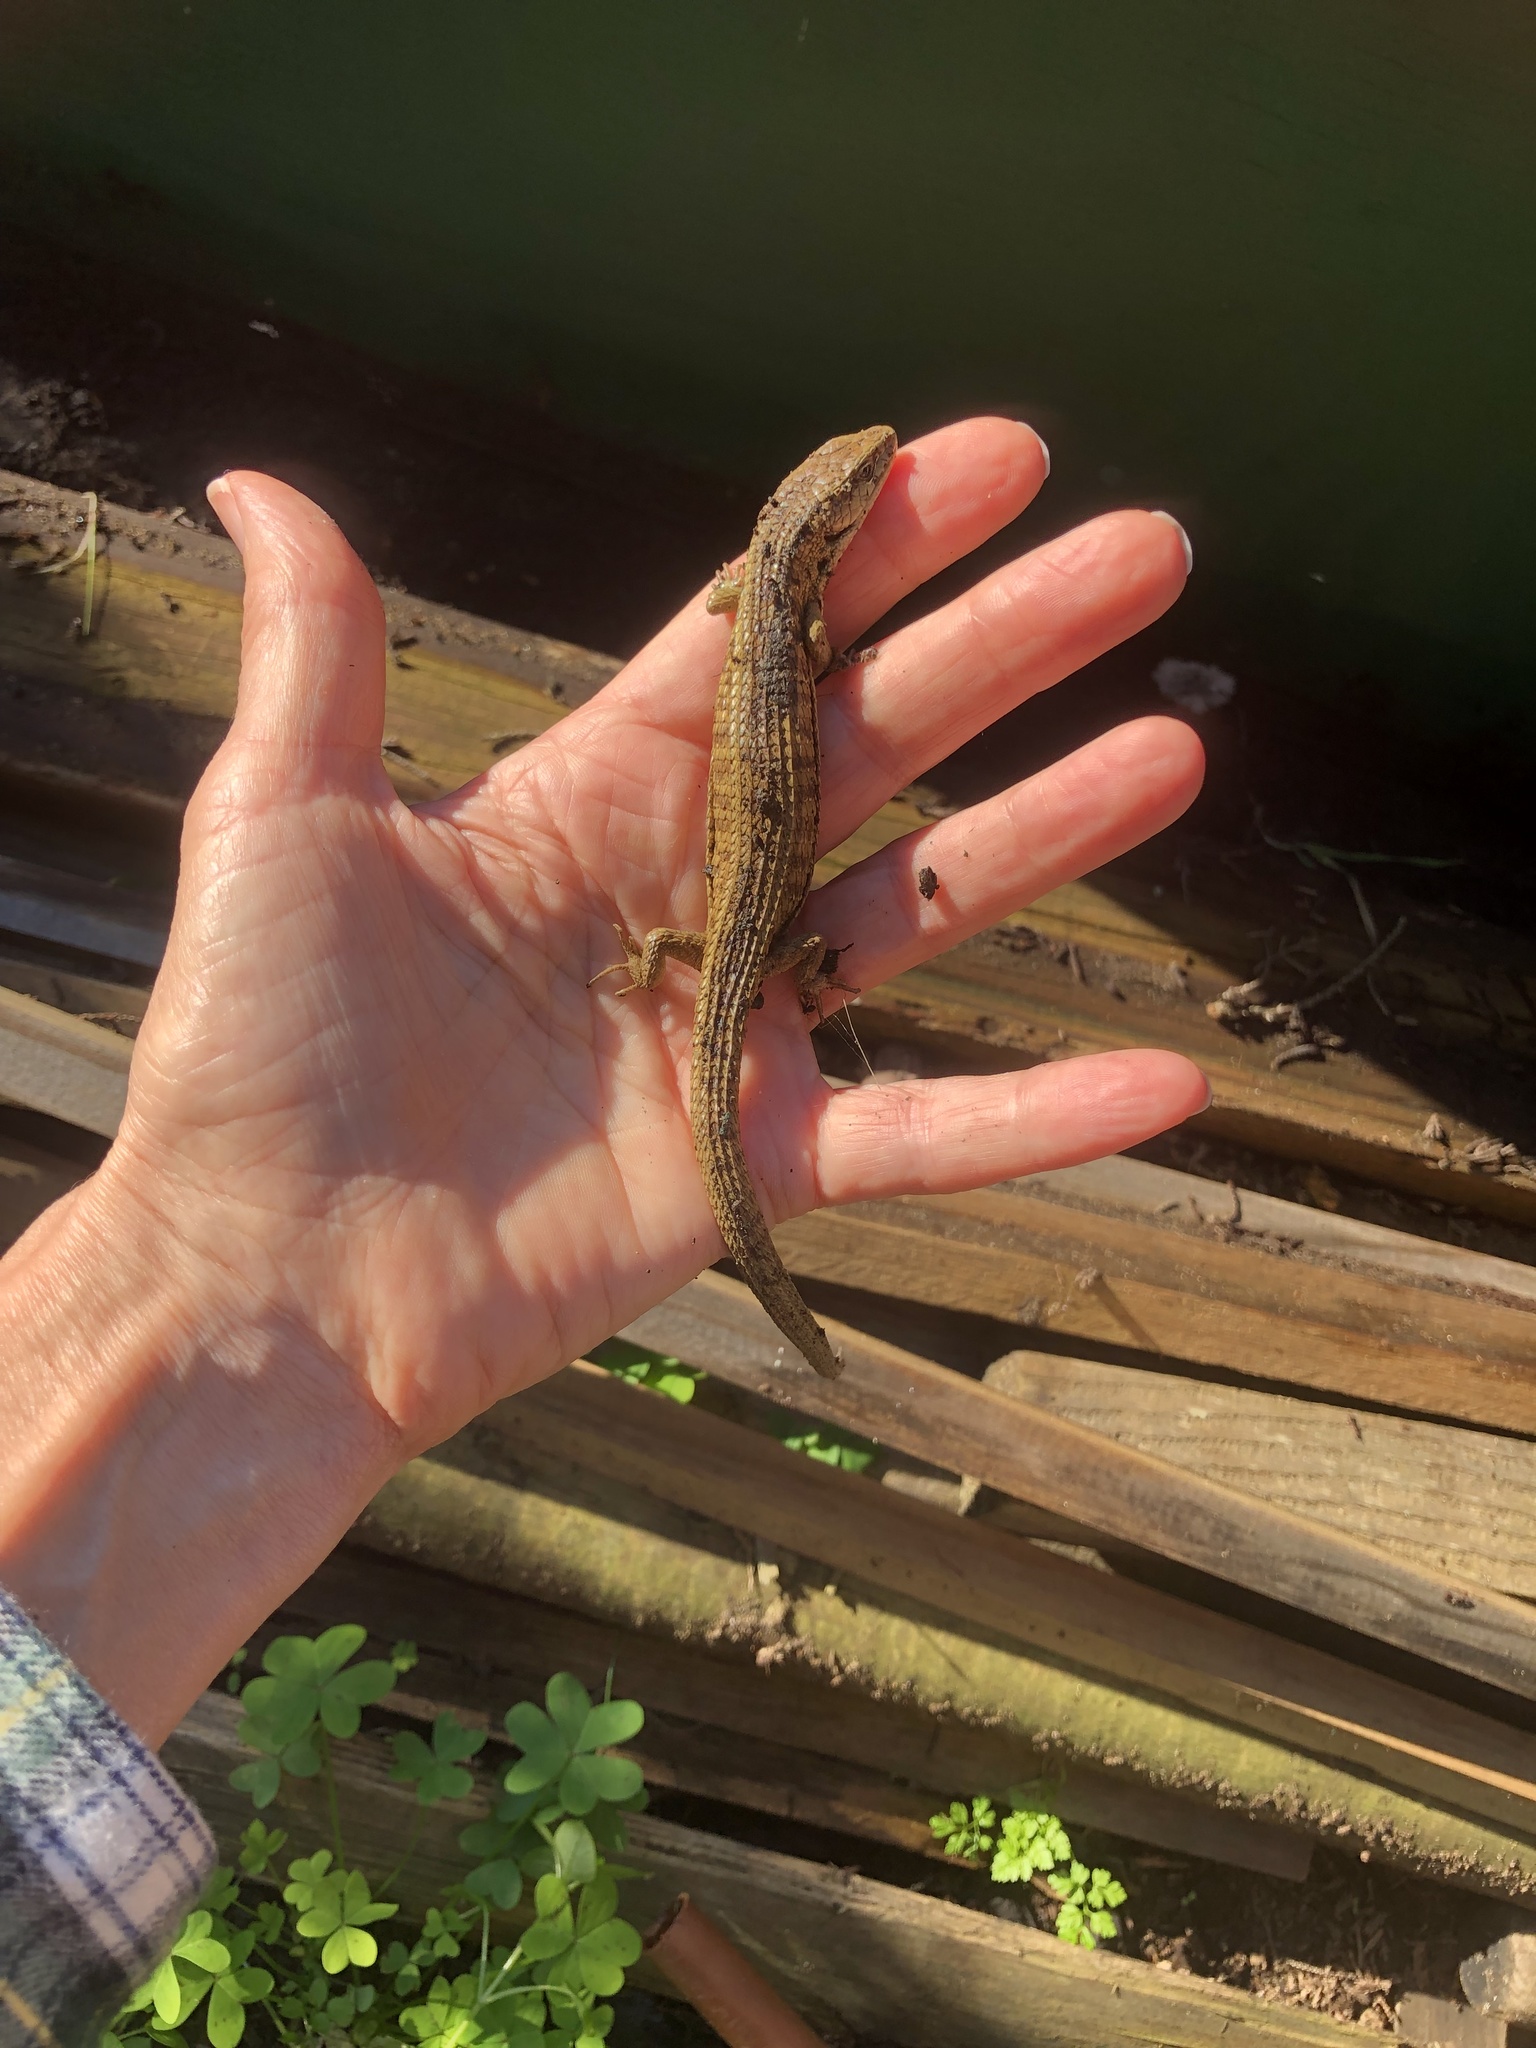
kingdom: Animalia
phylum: Chordata
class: Squamata
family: Anguidae
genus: Elgaria
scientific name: Elgaria coerulea
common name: Northern alligator lizard
